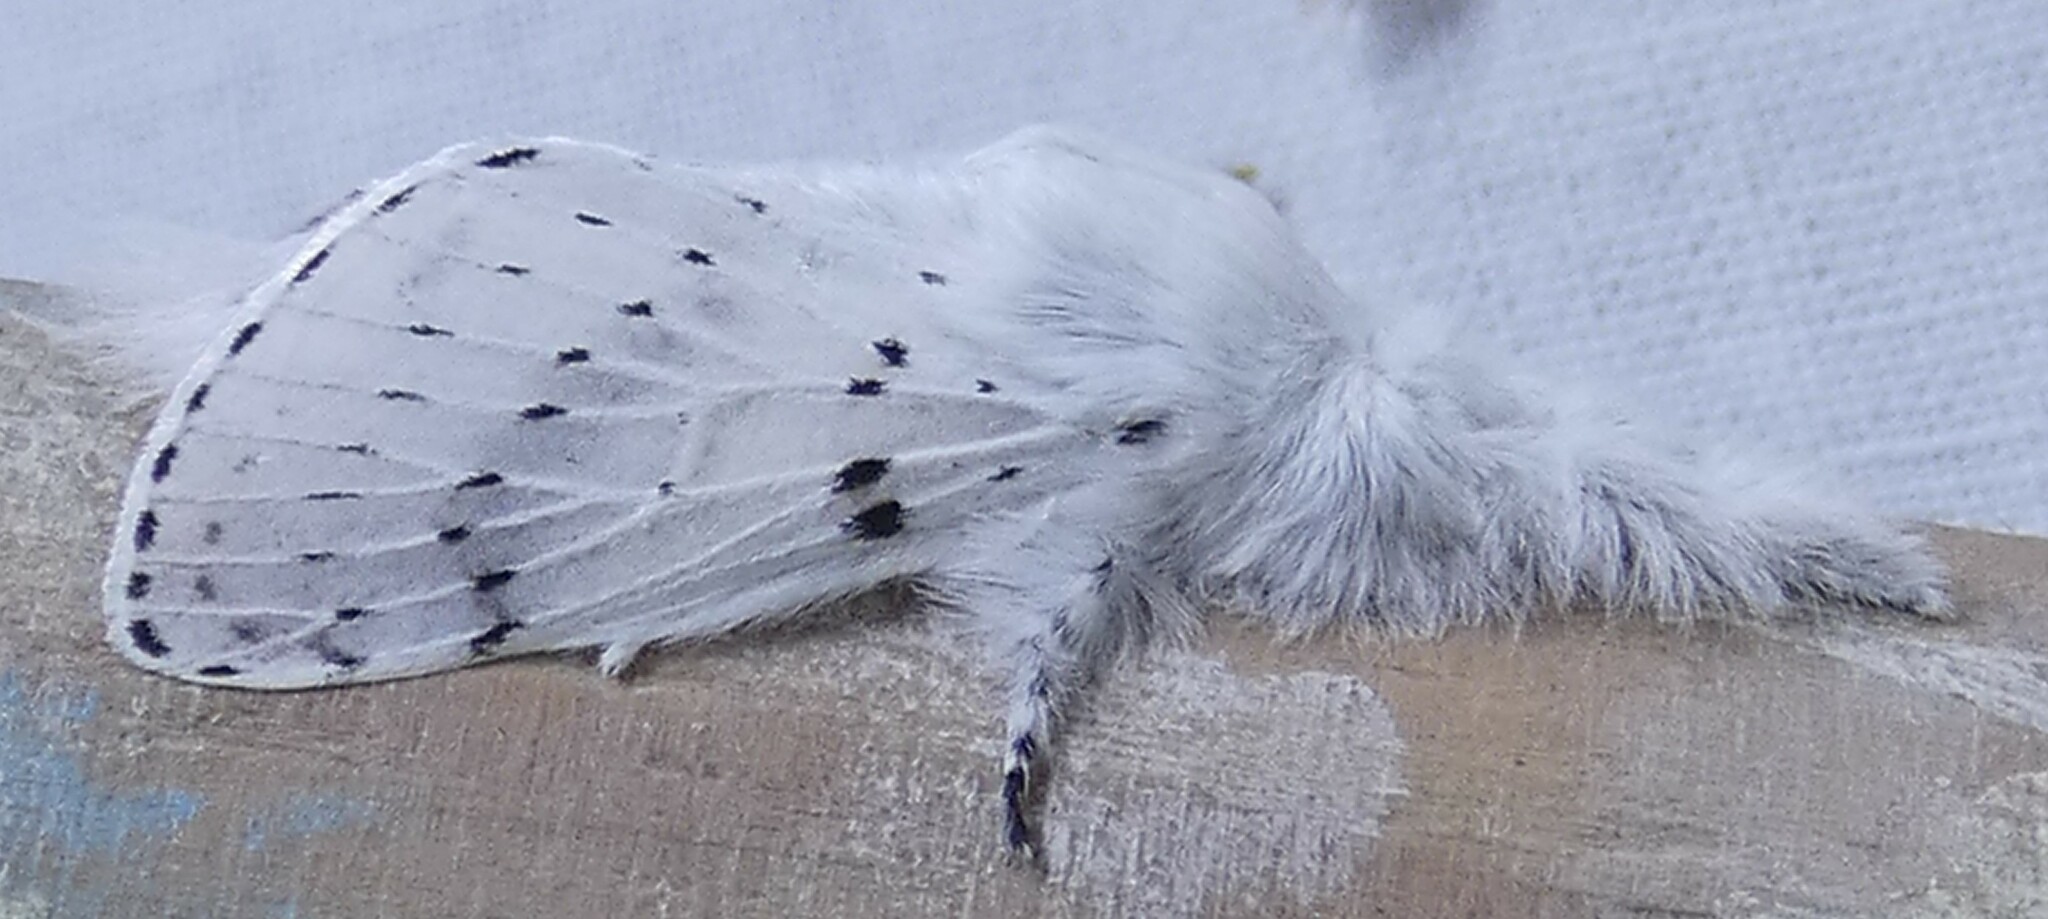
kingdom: Animalia
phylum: Arthropoda
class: Insecta
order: Lepidoptera
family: Lasiocampidae
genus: Artace
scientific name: Artace cribrarius
